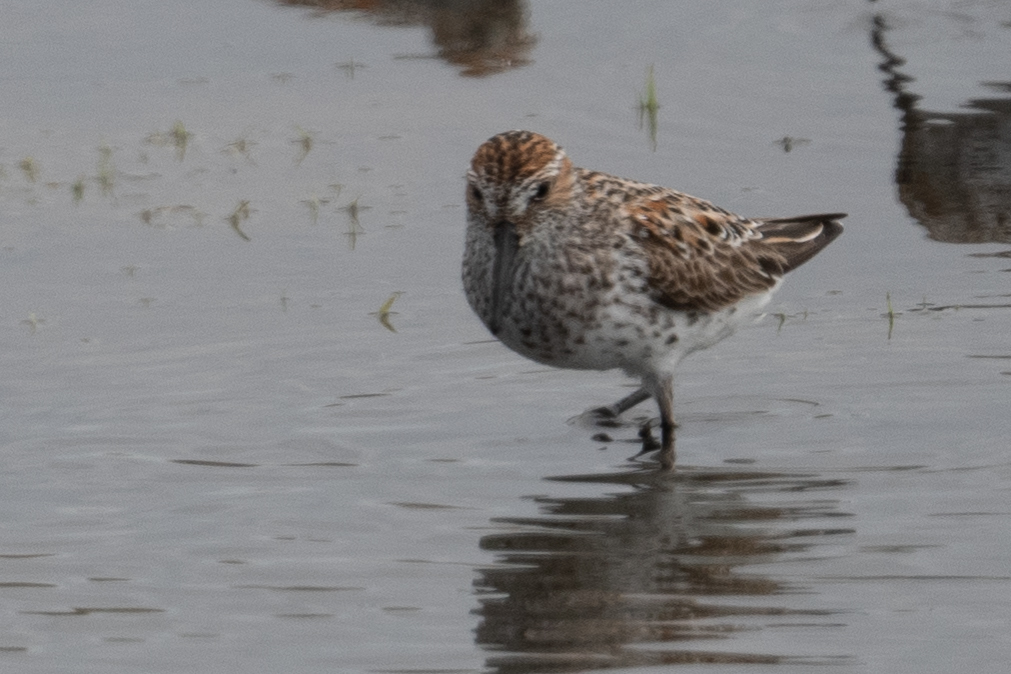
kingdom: Animalia
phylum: Chordata
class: Aves
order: Charadriiformes
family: Scolopacidae
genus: Calidris
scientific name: Calidris mauri
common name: Western sandpiper
